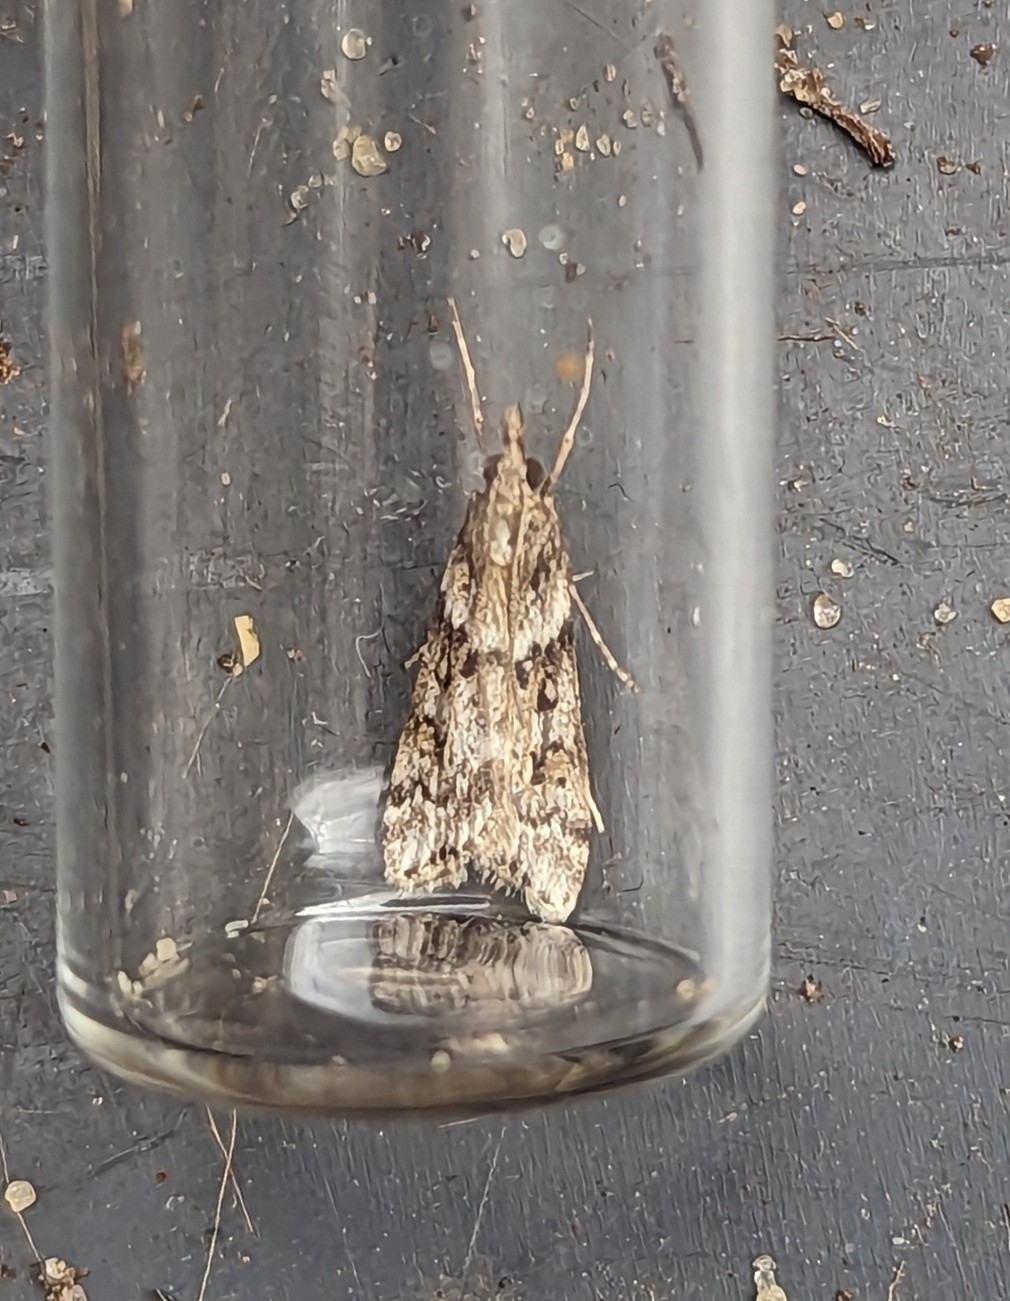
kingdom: Animalia
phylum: Arthropoda
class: Insecta
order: Lepidoptera
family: Crambidae
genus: Eudonia
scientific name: Eudonia angustea
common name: Narrow-winged grey
